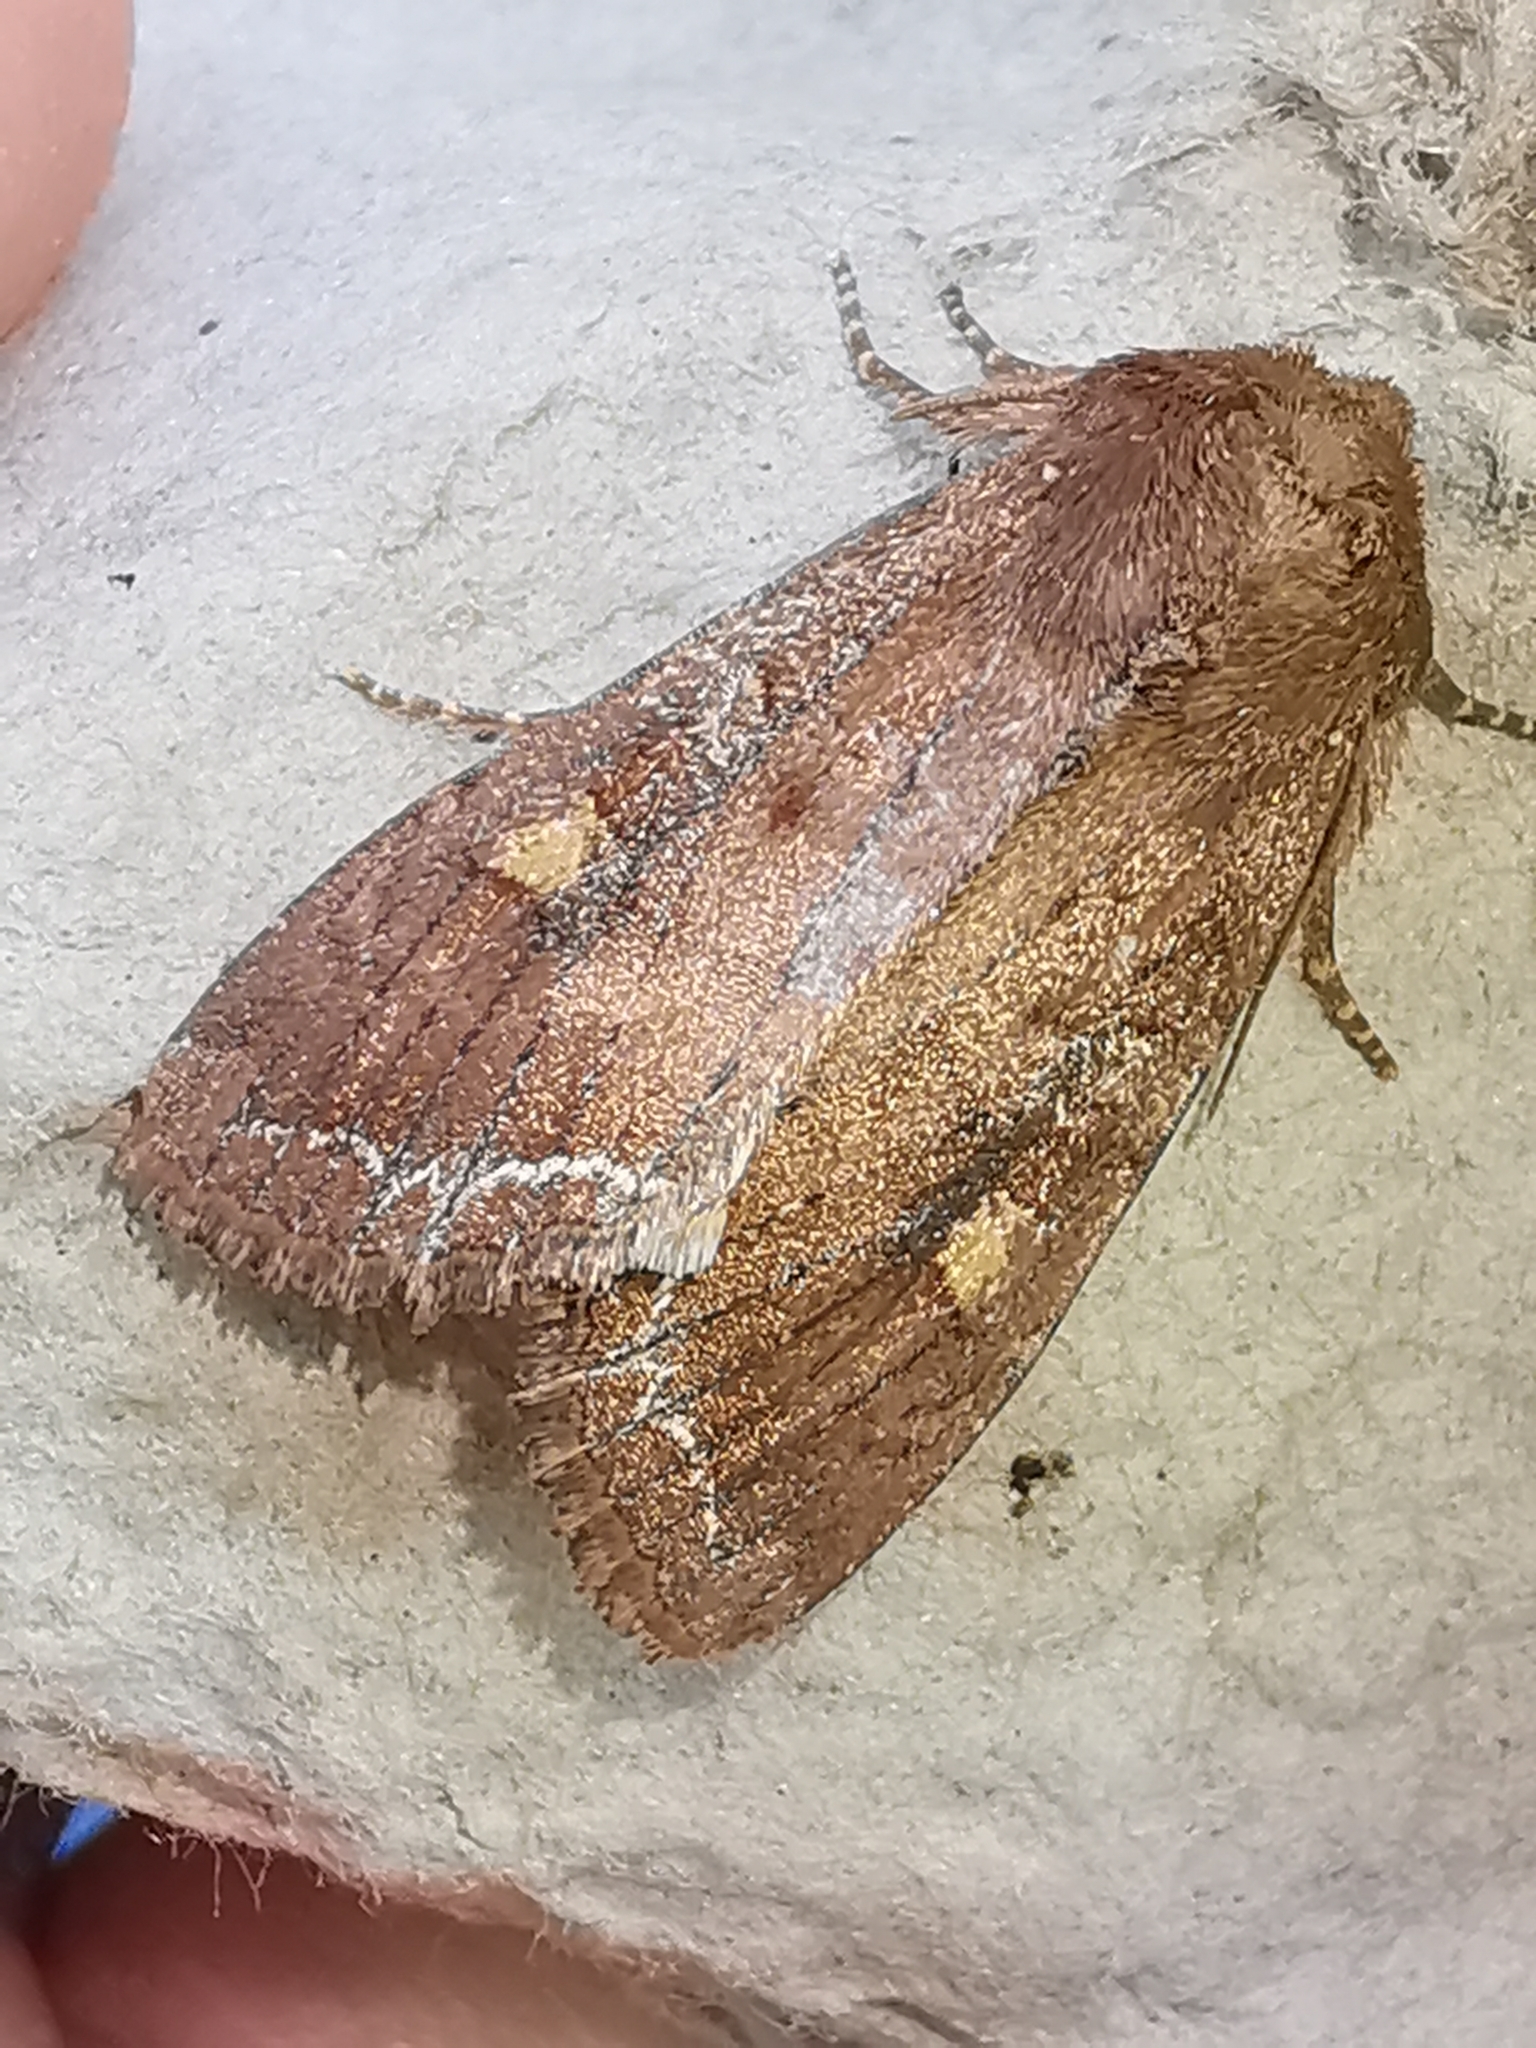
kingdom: Animalia
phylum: Arthropoda
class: Insecta
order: Lepidoptera
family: Noctuidae
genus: Lacanobia
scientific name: Lacanobia oleracea
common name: Bright-line brown-eye
